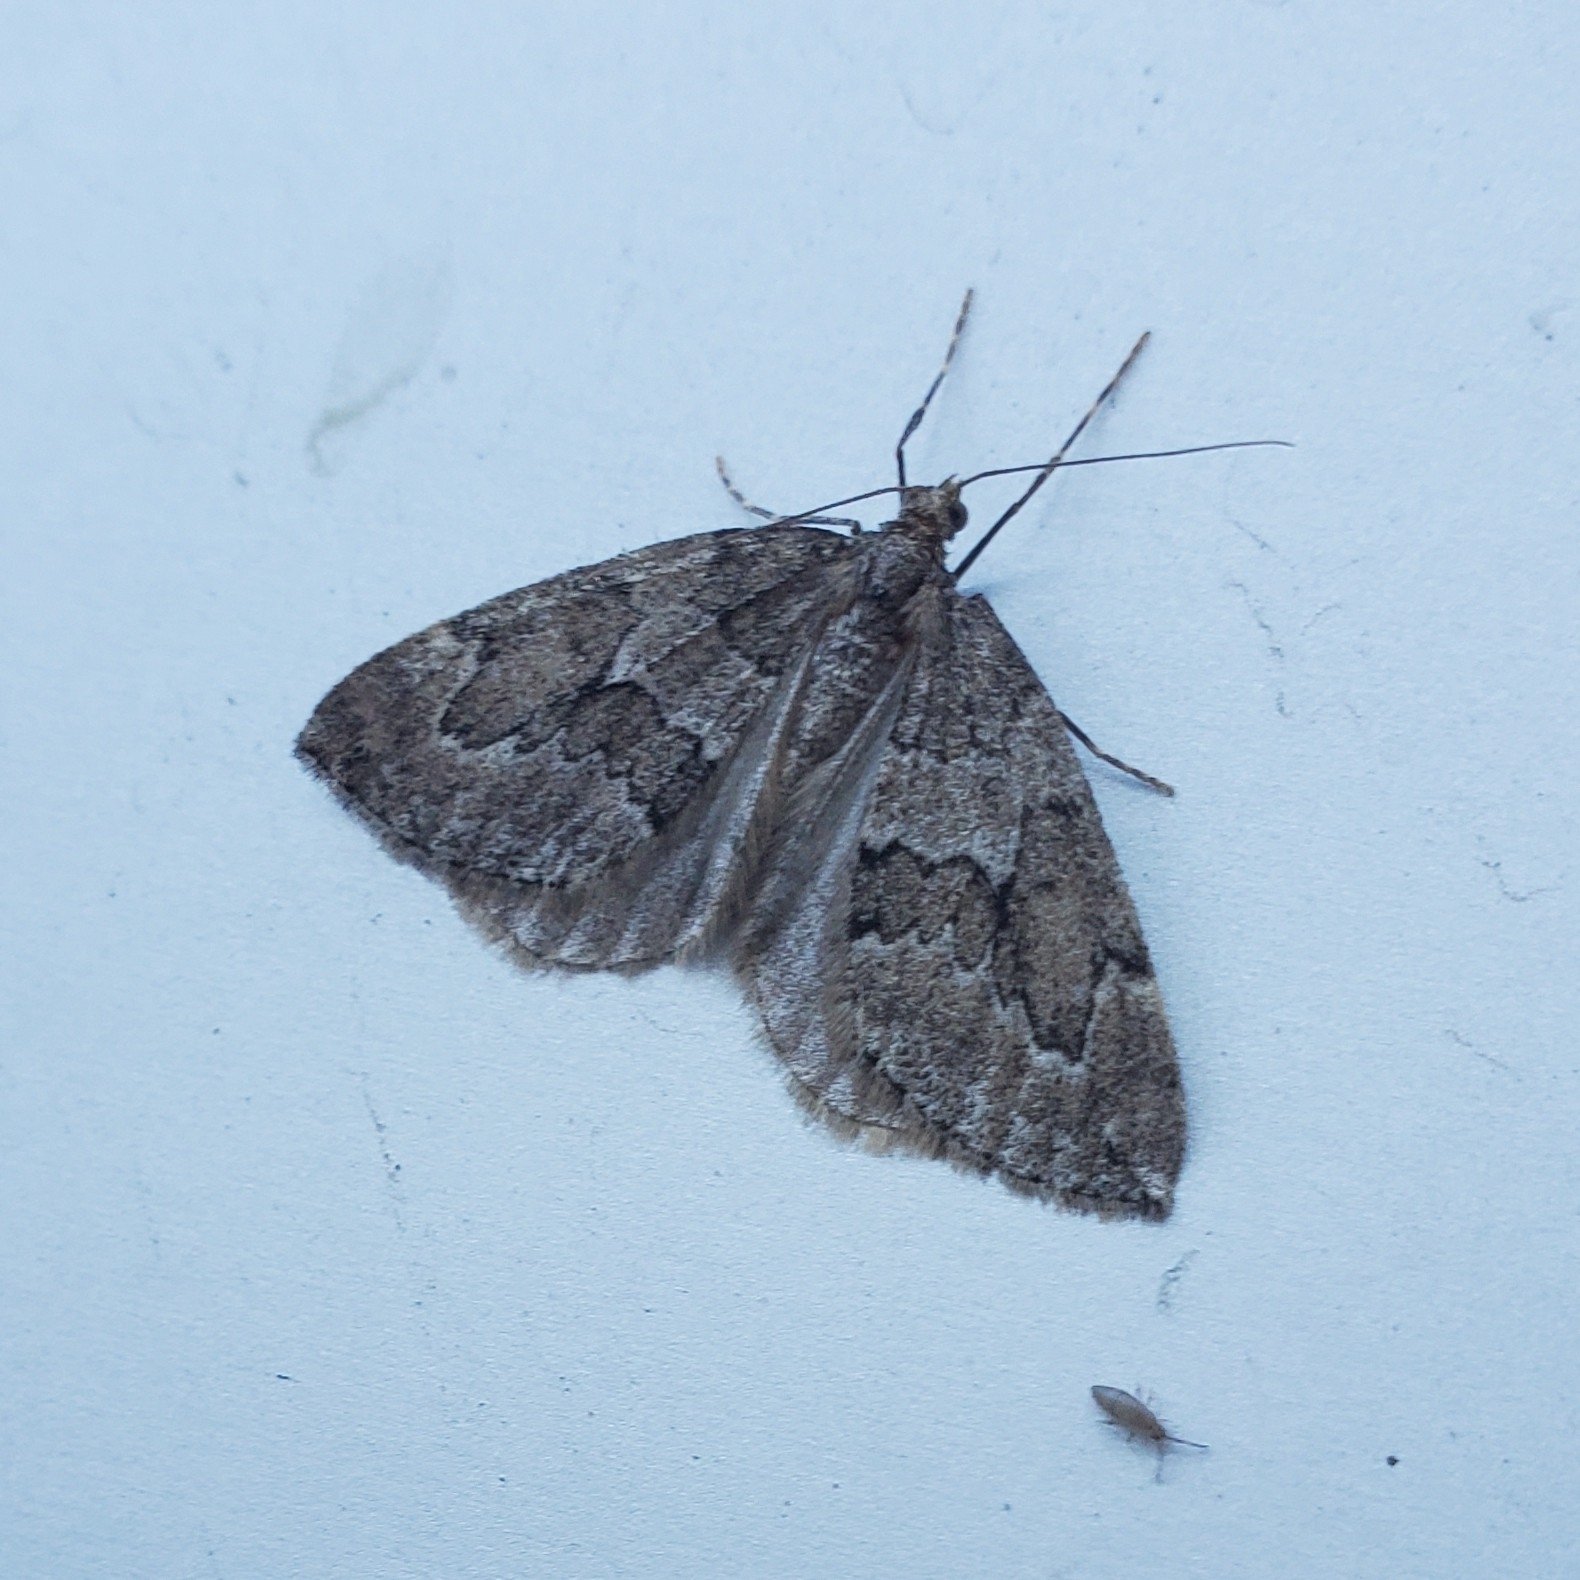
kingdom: Animalia
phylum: Arthropoda
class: Insecta
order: Lepidoptera
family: Geometridae
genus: Thera
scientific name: Thera juniperata
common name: Juniper carpet
